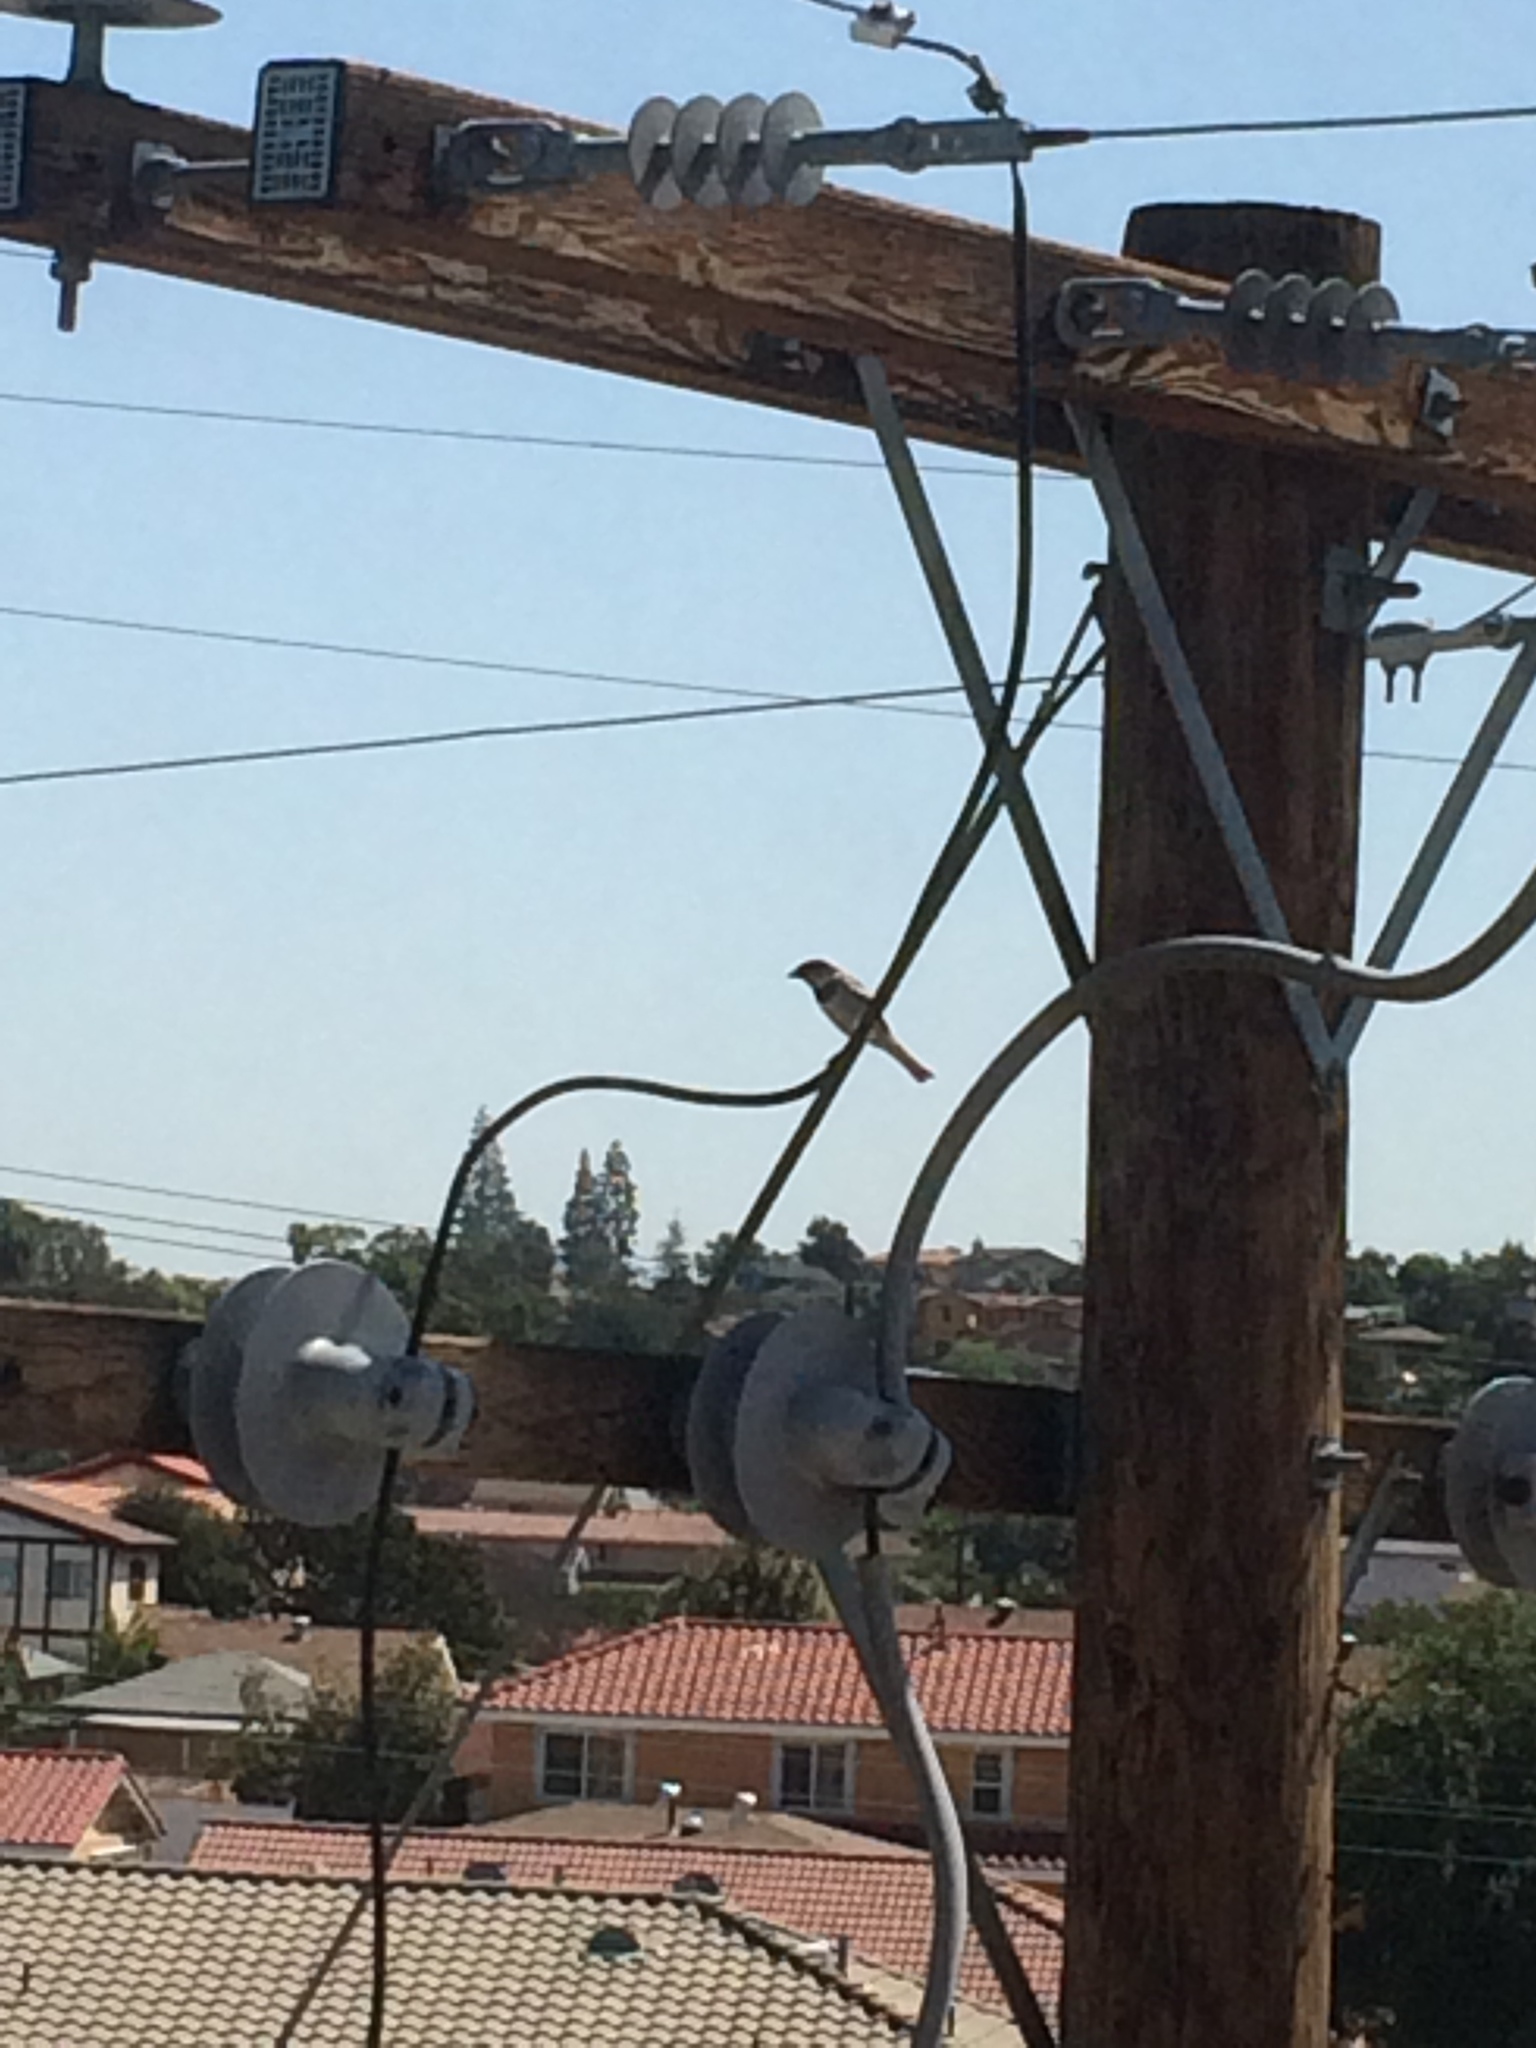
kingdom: Animalia
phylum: Chordata
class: Aves
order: Passeriformes
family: Passeridae
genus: Passer
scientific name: Passer domesticus
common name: House sparrow
